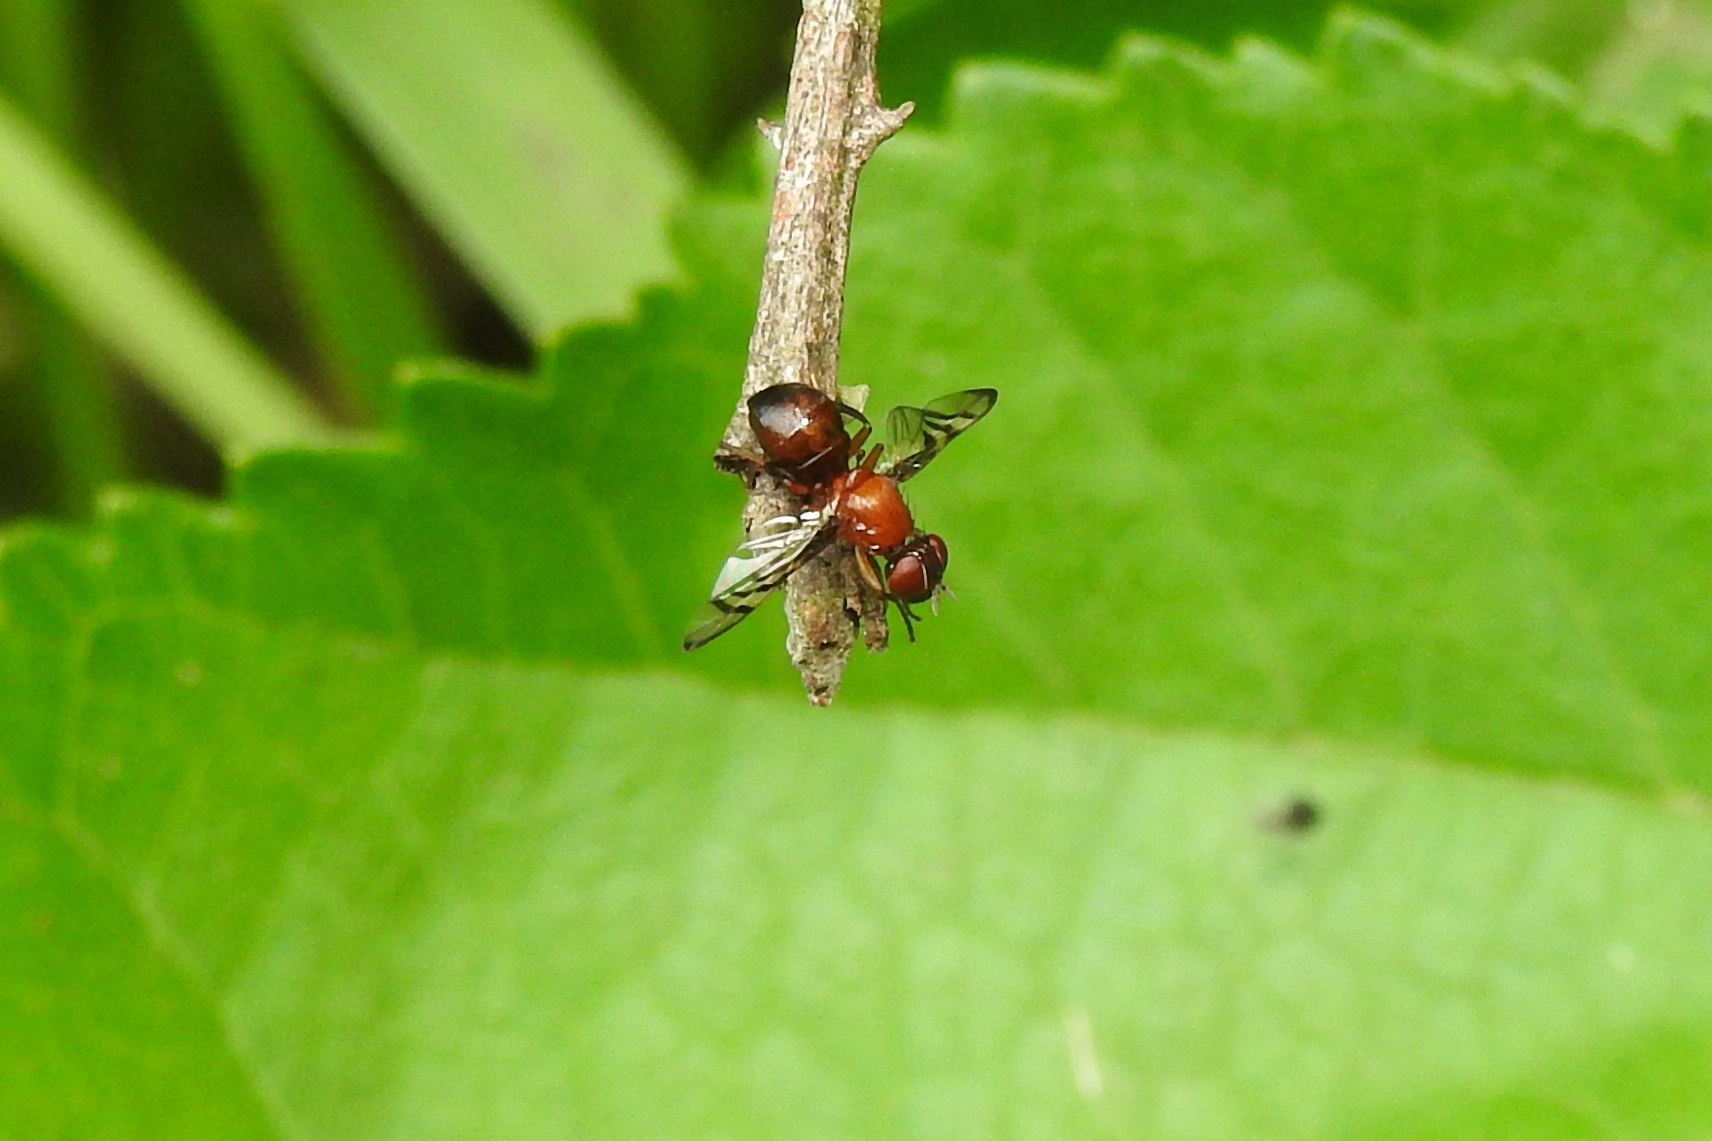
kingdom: Animalia
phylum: Arthropoda
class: Insecta
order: Diptera
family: Platystomatidae
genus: Rivellia
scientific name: Rivellia
